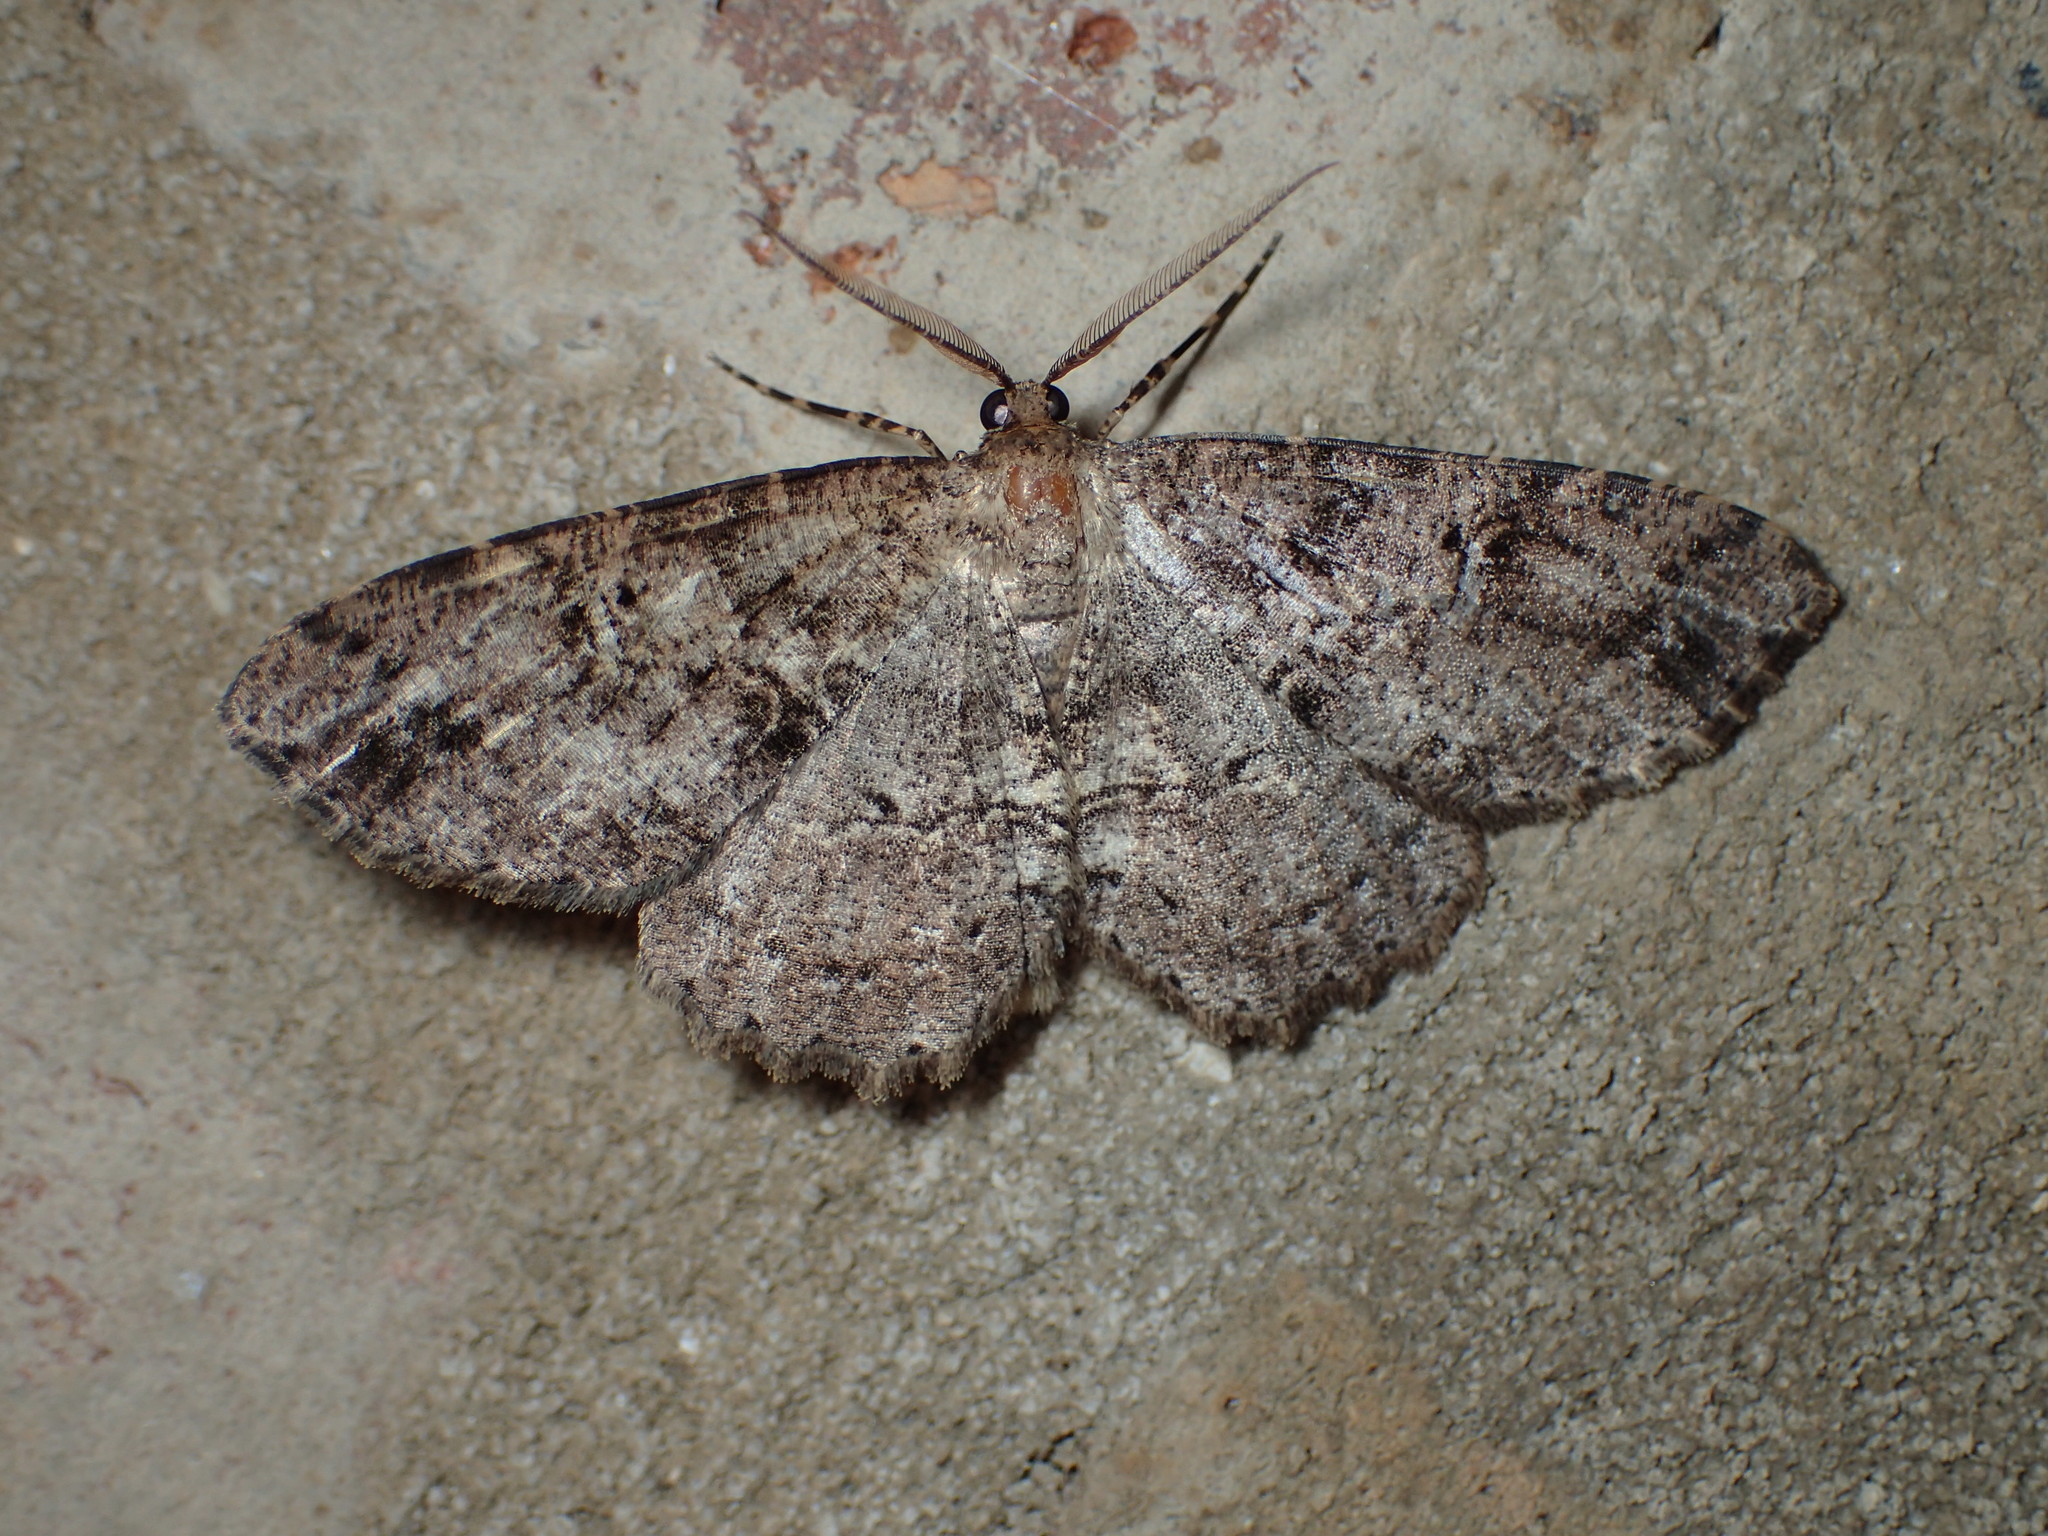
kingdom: Animalia
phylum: Arthropoda
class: Insecta
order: Lepidoptera
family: Geometridae
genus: Melanolophia
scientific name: Melanolophia canadaria
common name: Canadian melanolophia
